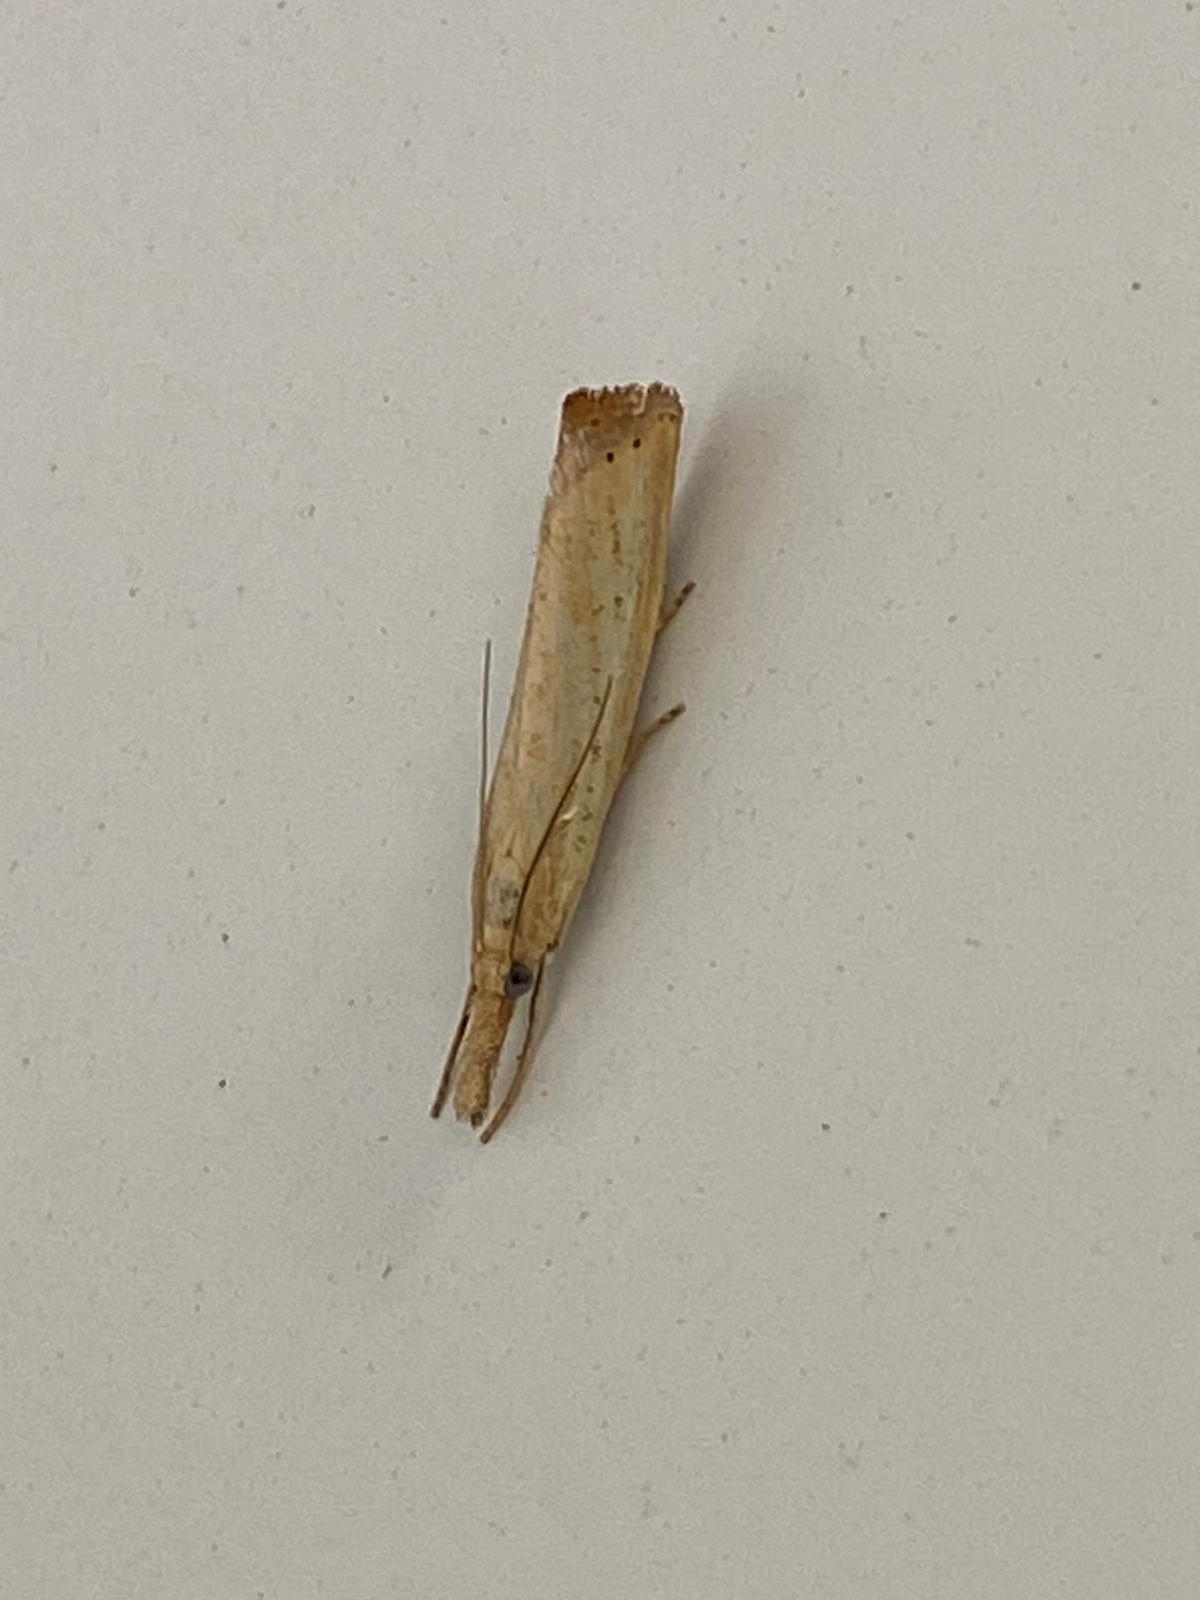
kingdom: Animalia
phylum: Arthropoda
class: Insecta
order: Lepidoptera
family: Crambidae
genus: Agriphila
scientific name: Agriphila straminella
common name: Straw grass-veneer
